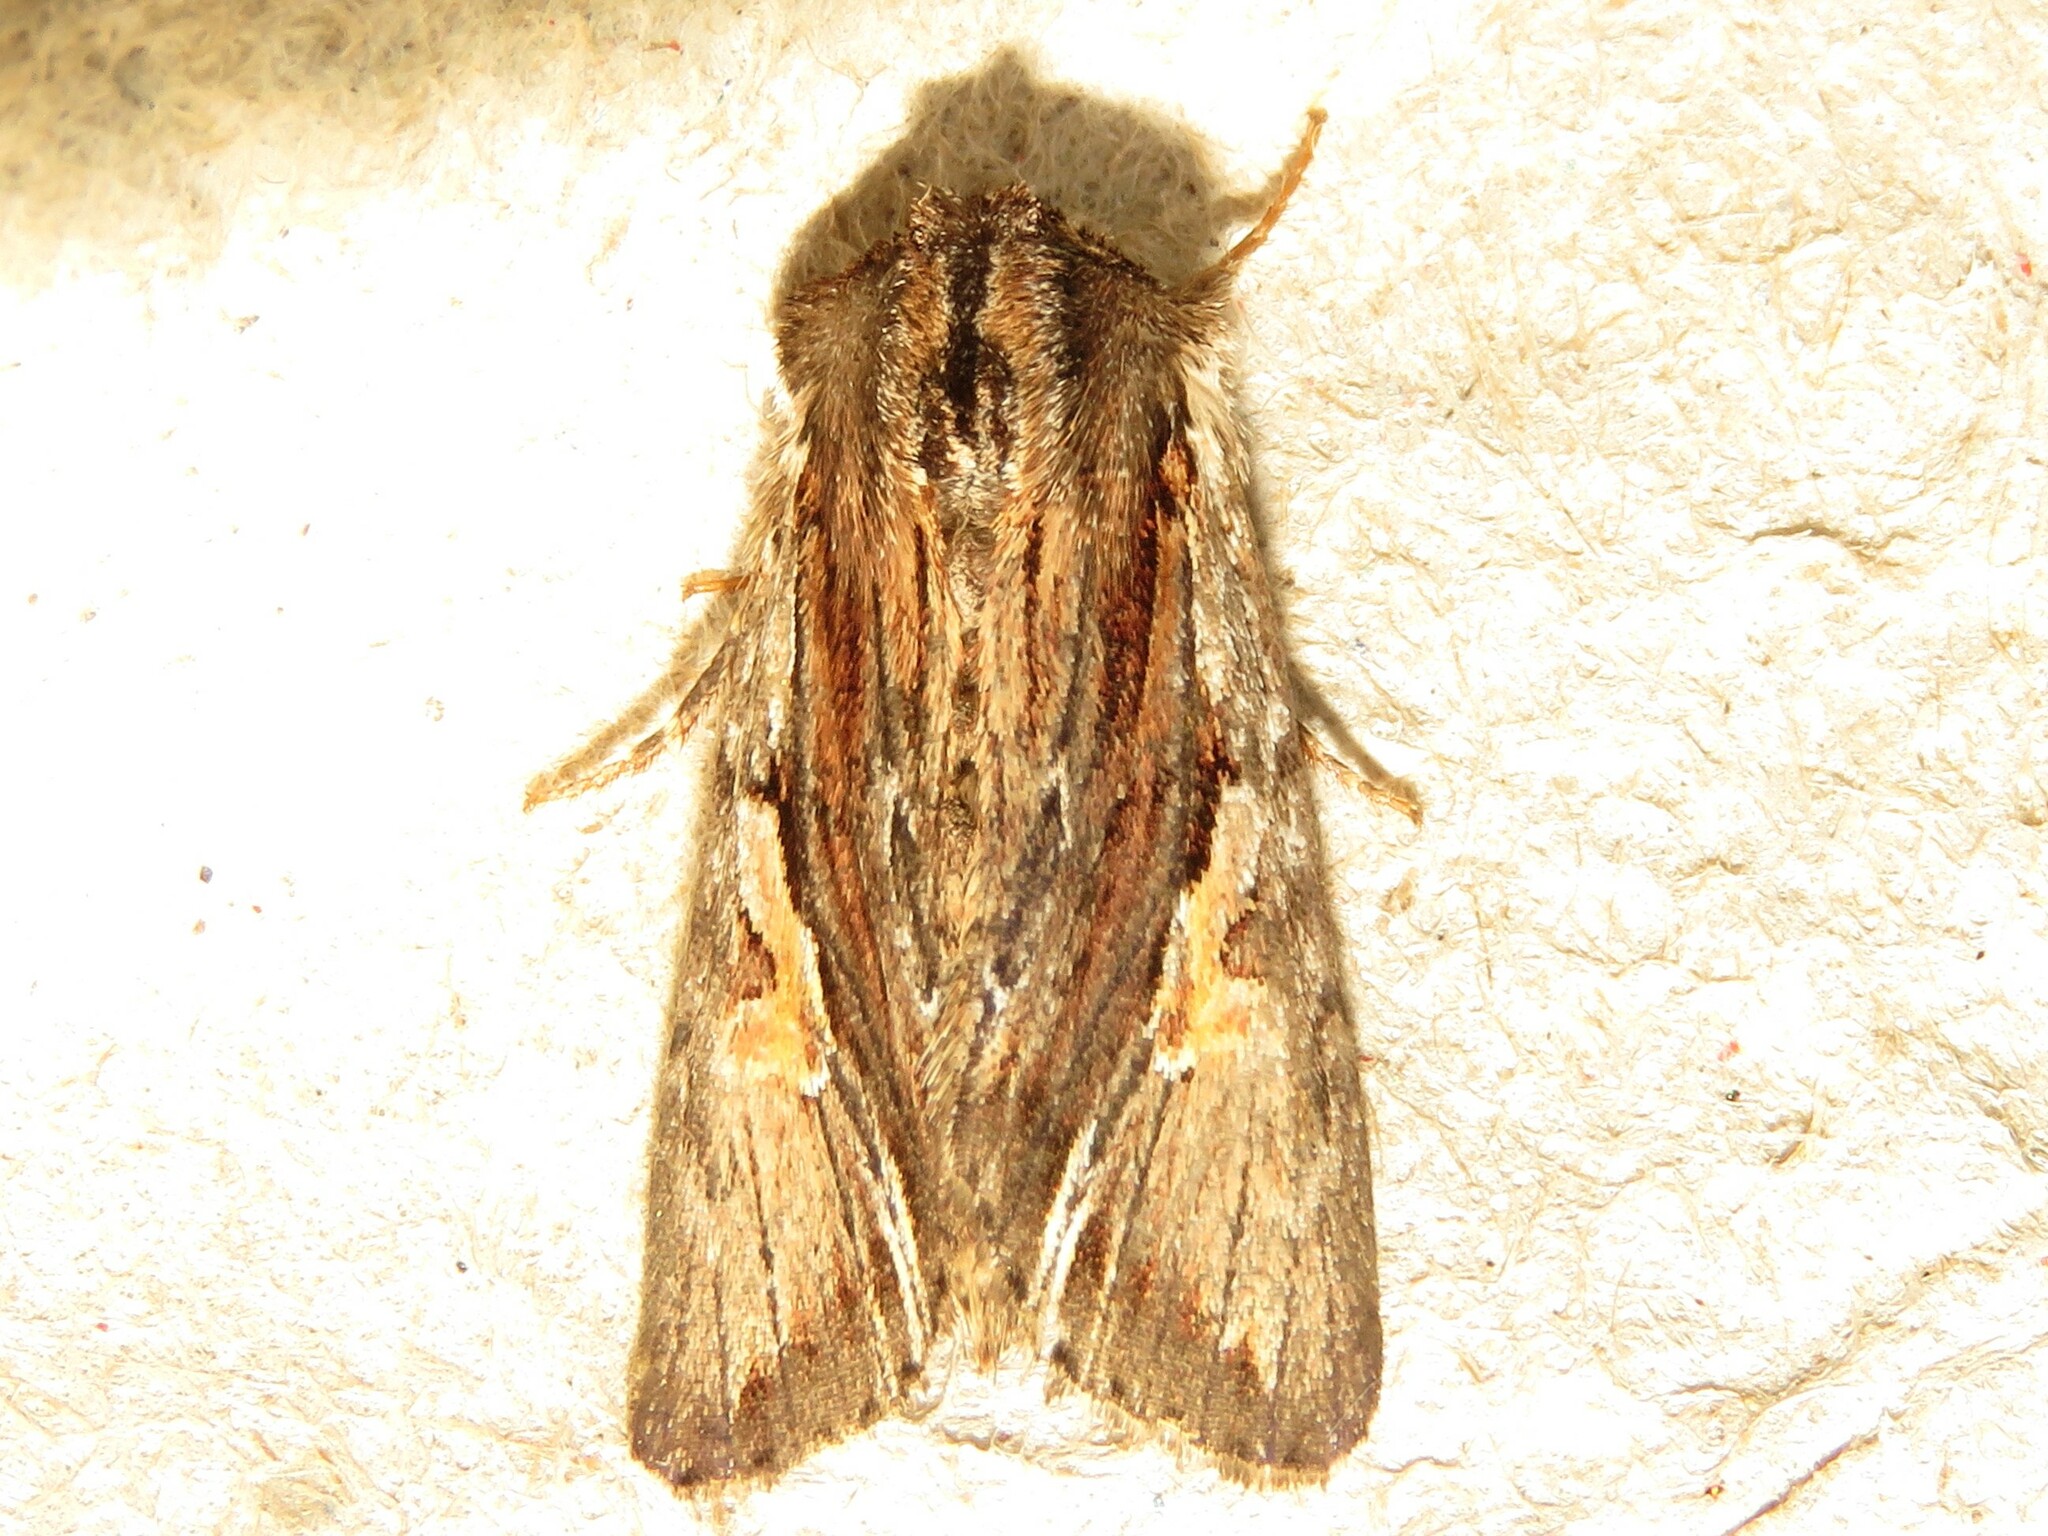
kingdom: Animalia
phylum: Arthropoda
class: Insecta
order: Lepidoptera
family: Noctuidae
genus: Achatia
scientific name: Achatia evicta
